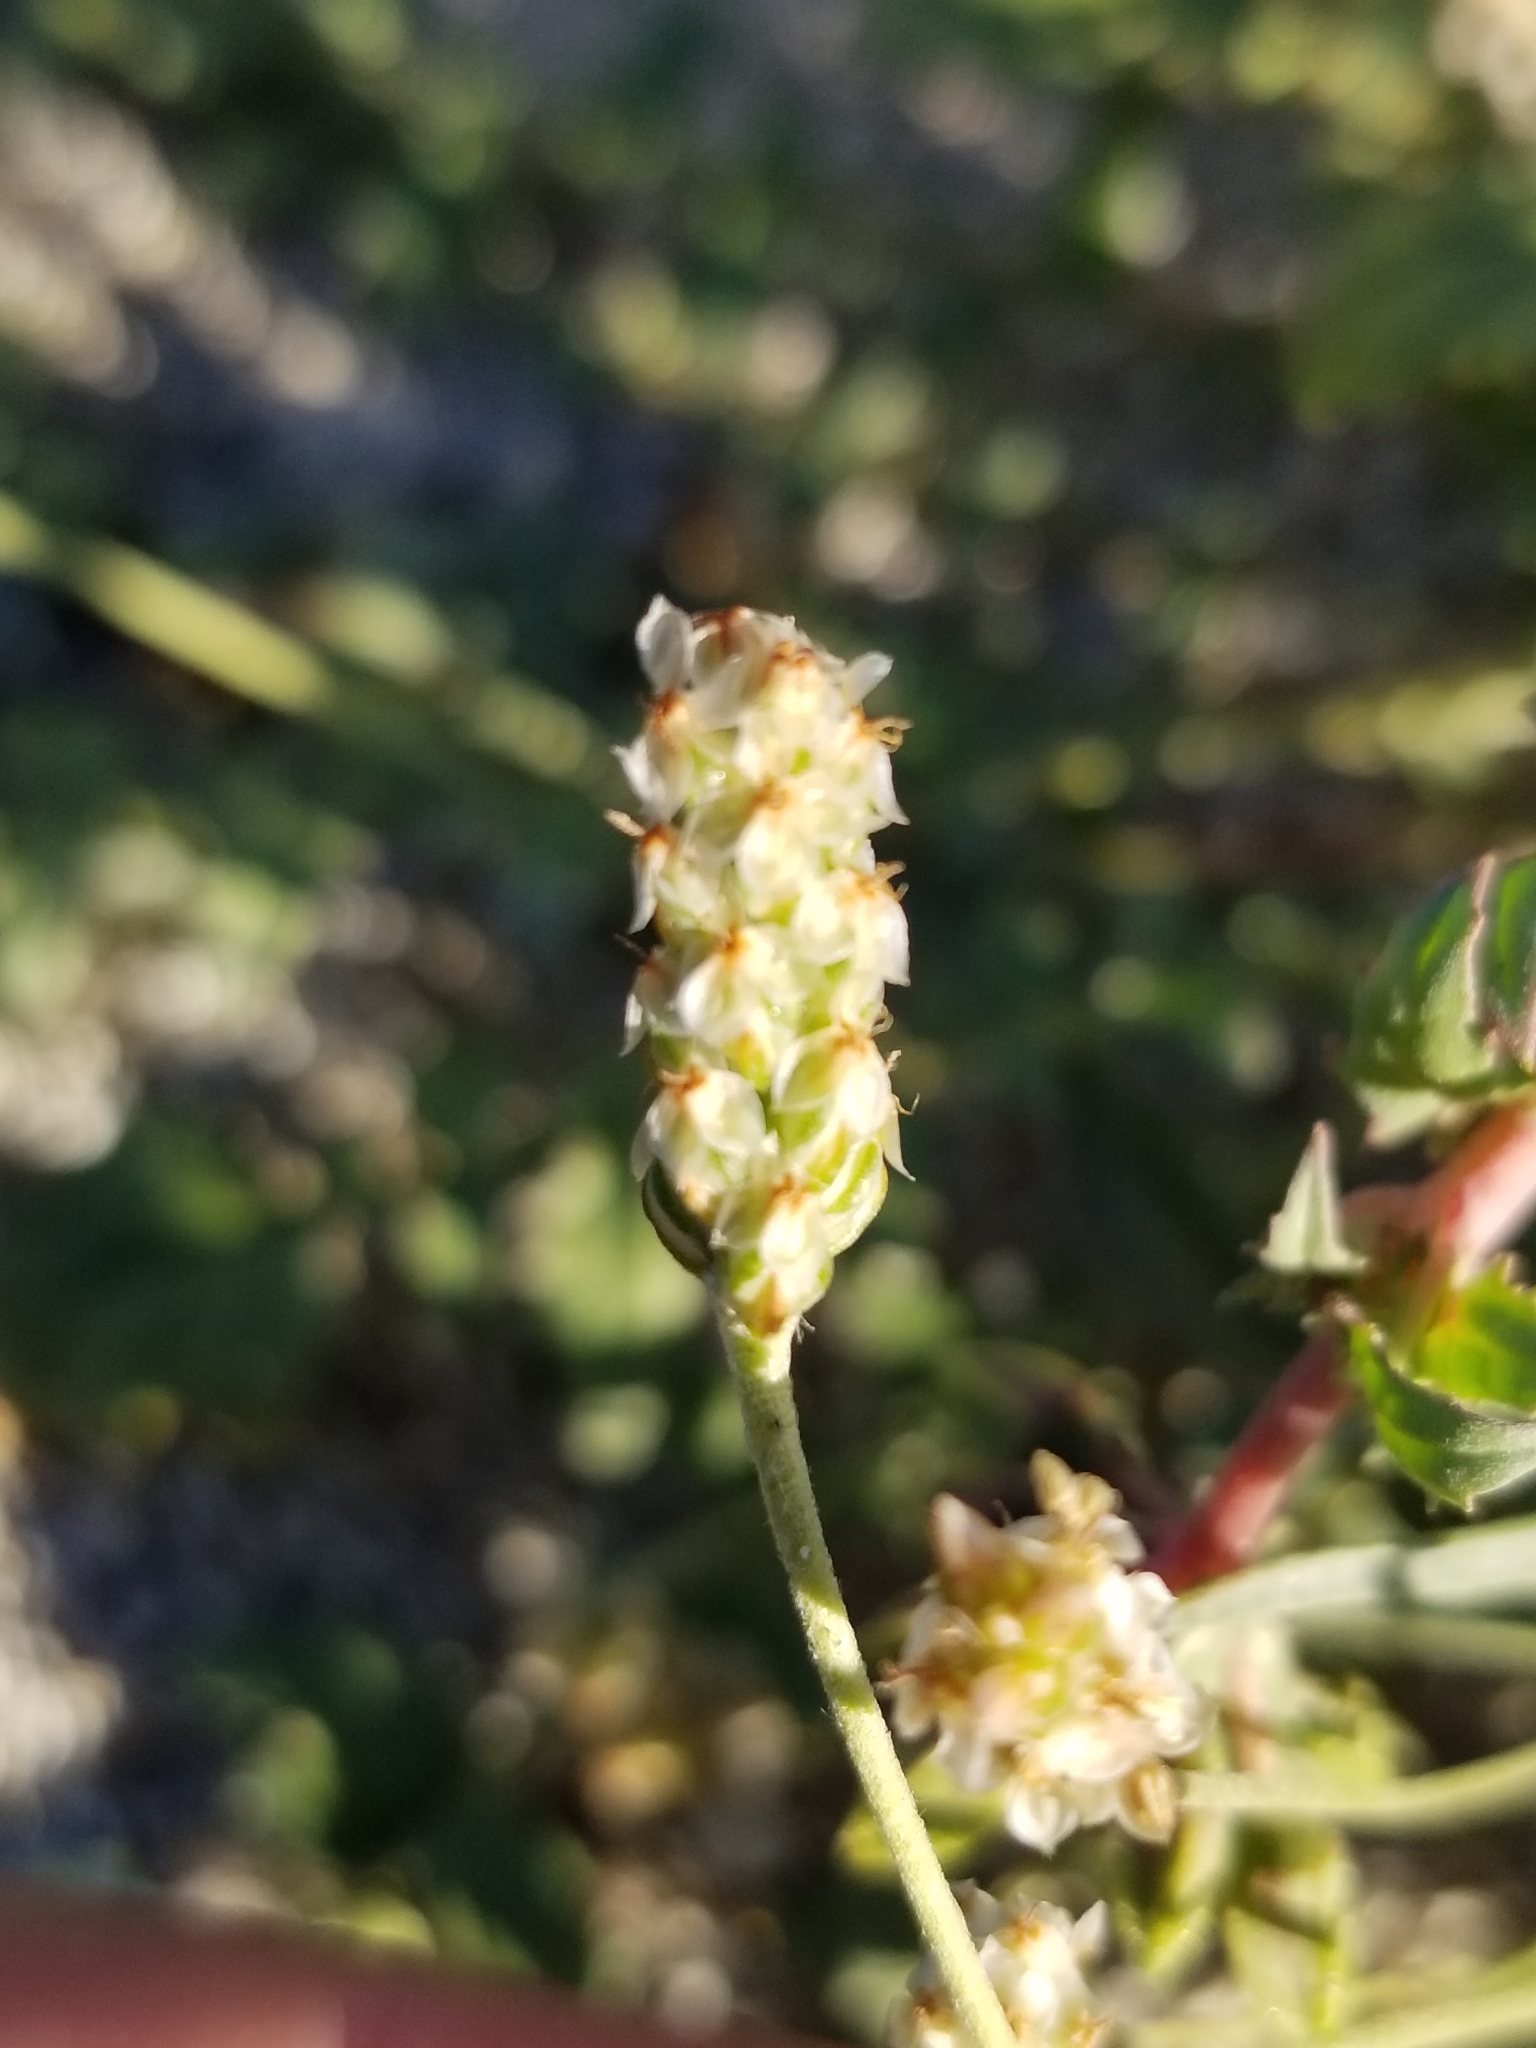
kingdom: Plantae
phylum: Tracheophyta
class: Magnoliopsida
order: Lamiales
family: Plantaginaceae
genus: Plantago
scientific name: Plantago ovata
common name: Blond plantain
